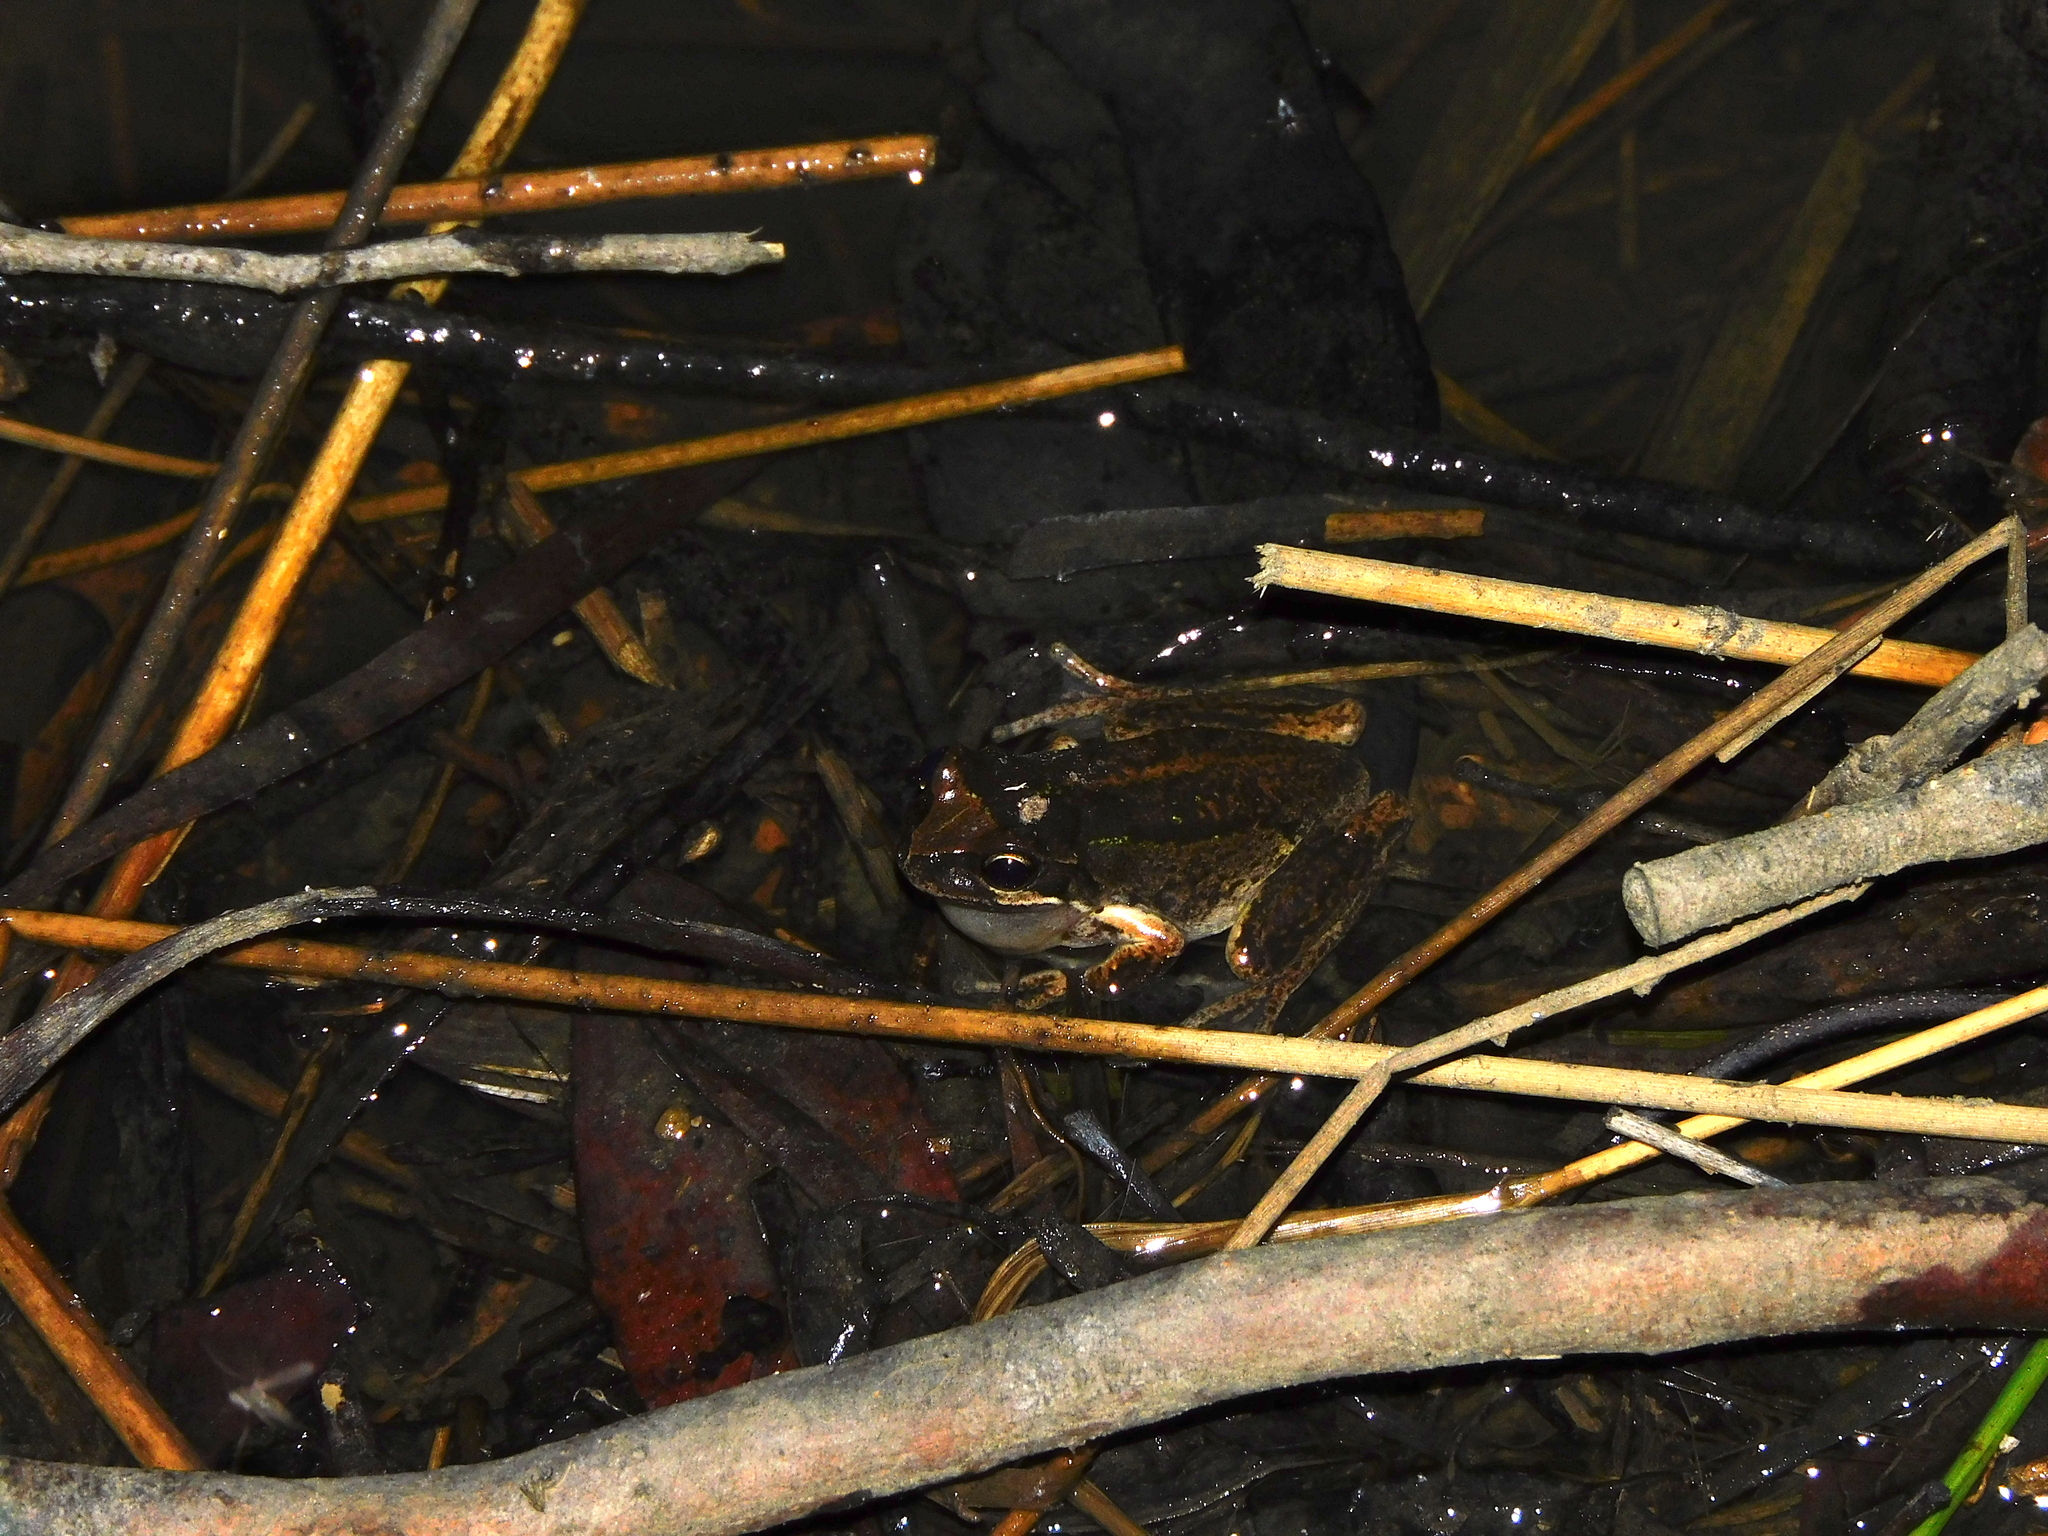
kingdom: Animalia
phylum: Chordata
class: Amphibia
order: Anura
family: Pelodryadidae
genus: Litoria
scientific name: Litoria ewingii
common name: Southern brown tree frog
